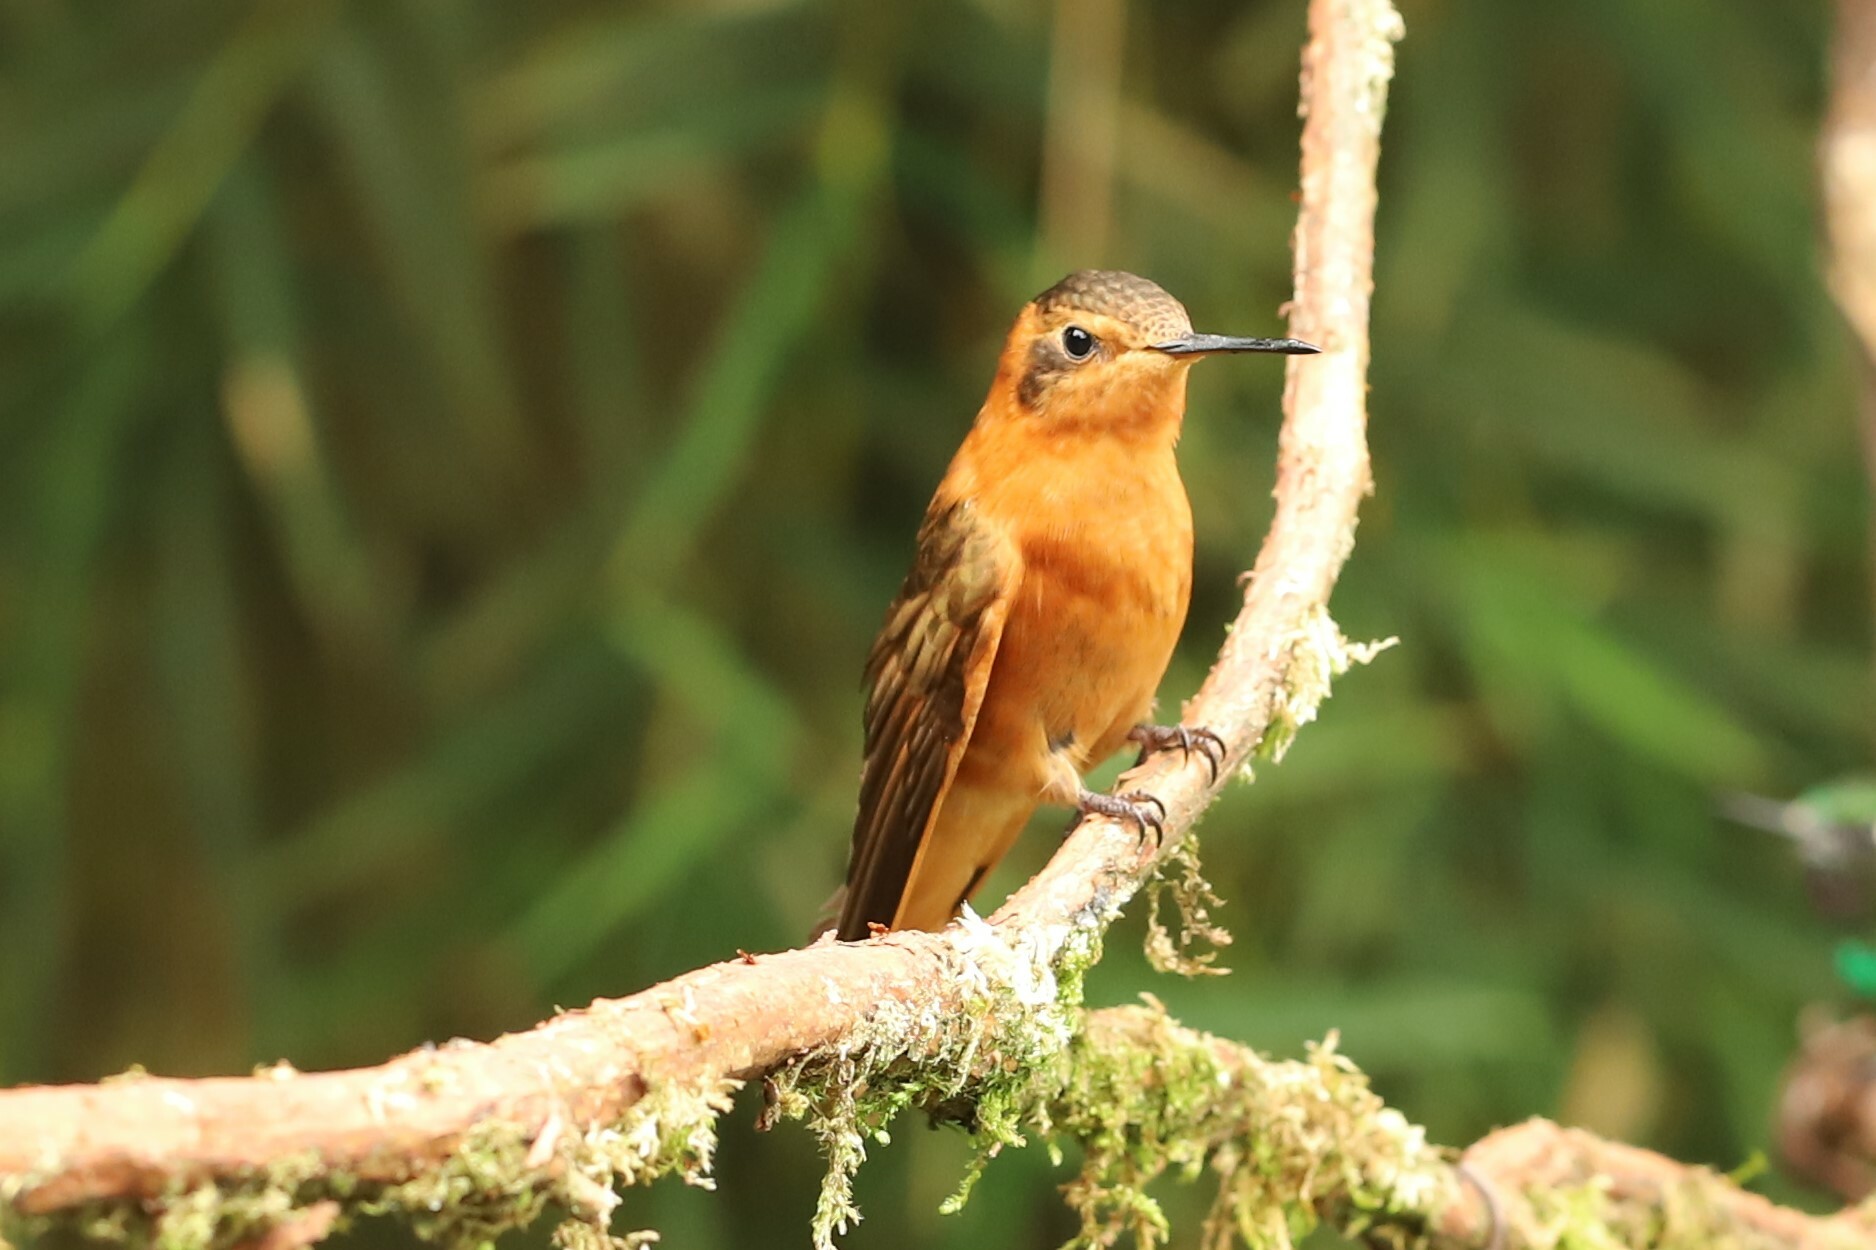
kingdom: Animalia
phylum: Chordata
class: Aves
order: Apodiformes
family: Trochilidae
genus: Aglaeactis
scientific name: Aglaeactis cupripennis
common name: Shining sunbeam
